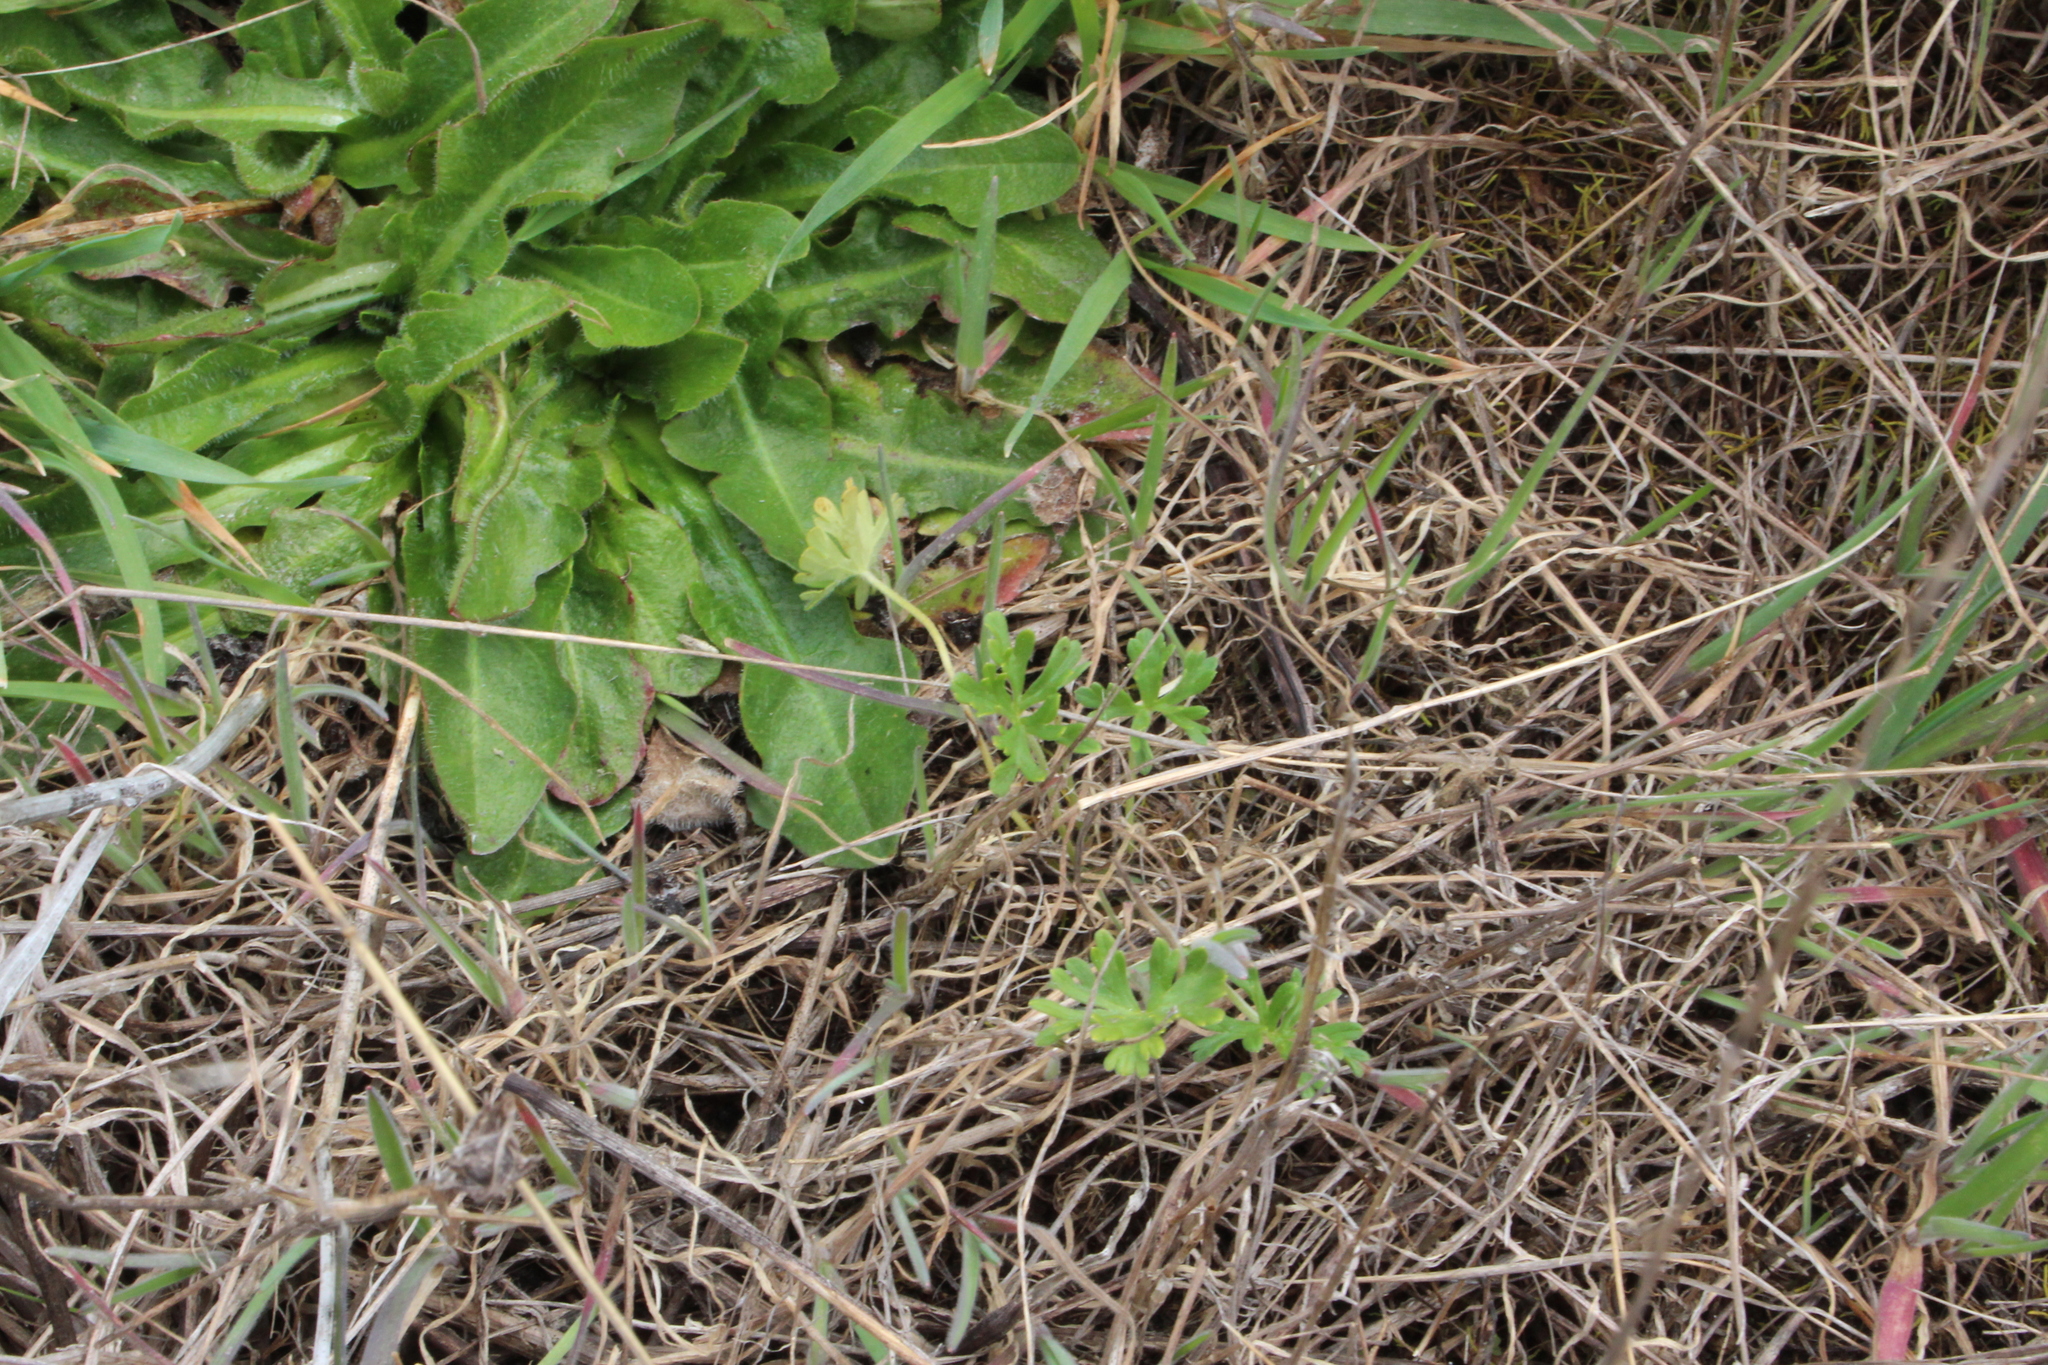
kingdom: Plantae
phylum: Tracheophyta
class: Magnoliopsida
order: Geraniales
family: Geraniaceae
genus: Geranium
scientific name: Geranium solanderi
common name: Solander's geranium
